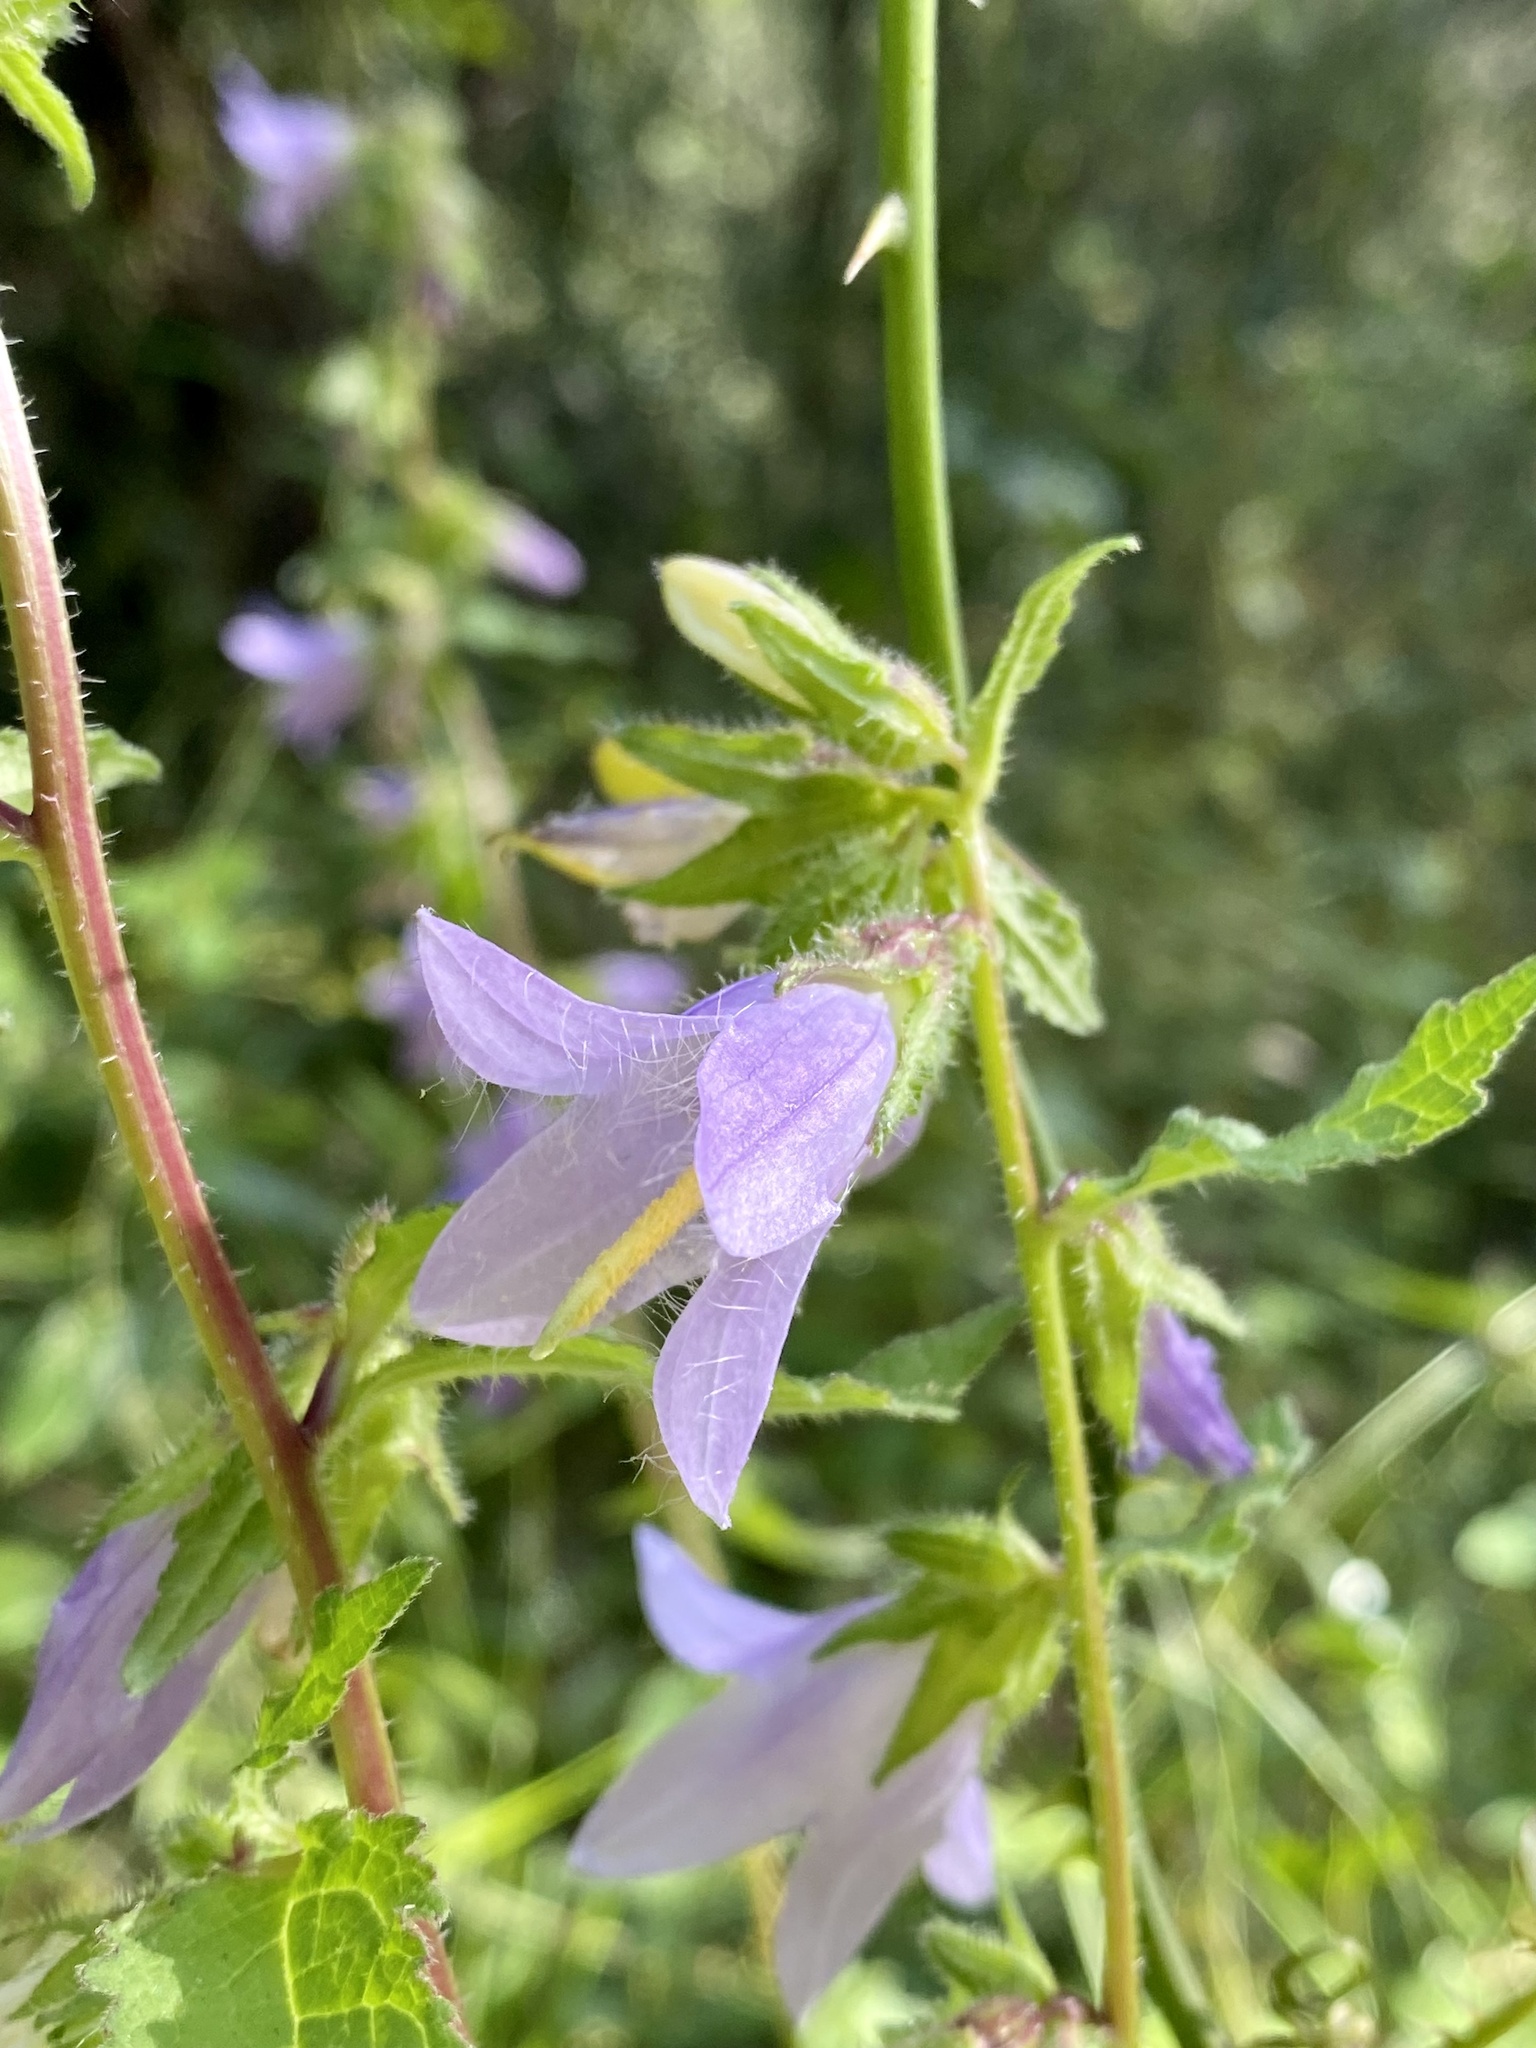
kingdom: Plantae
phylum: Tracheophyta
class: Magnoliopsida
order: Asterales
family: Campanulaceae
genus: Campanula
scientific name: Campanula trachelium
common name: Nettle-leaved bellflower
